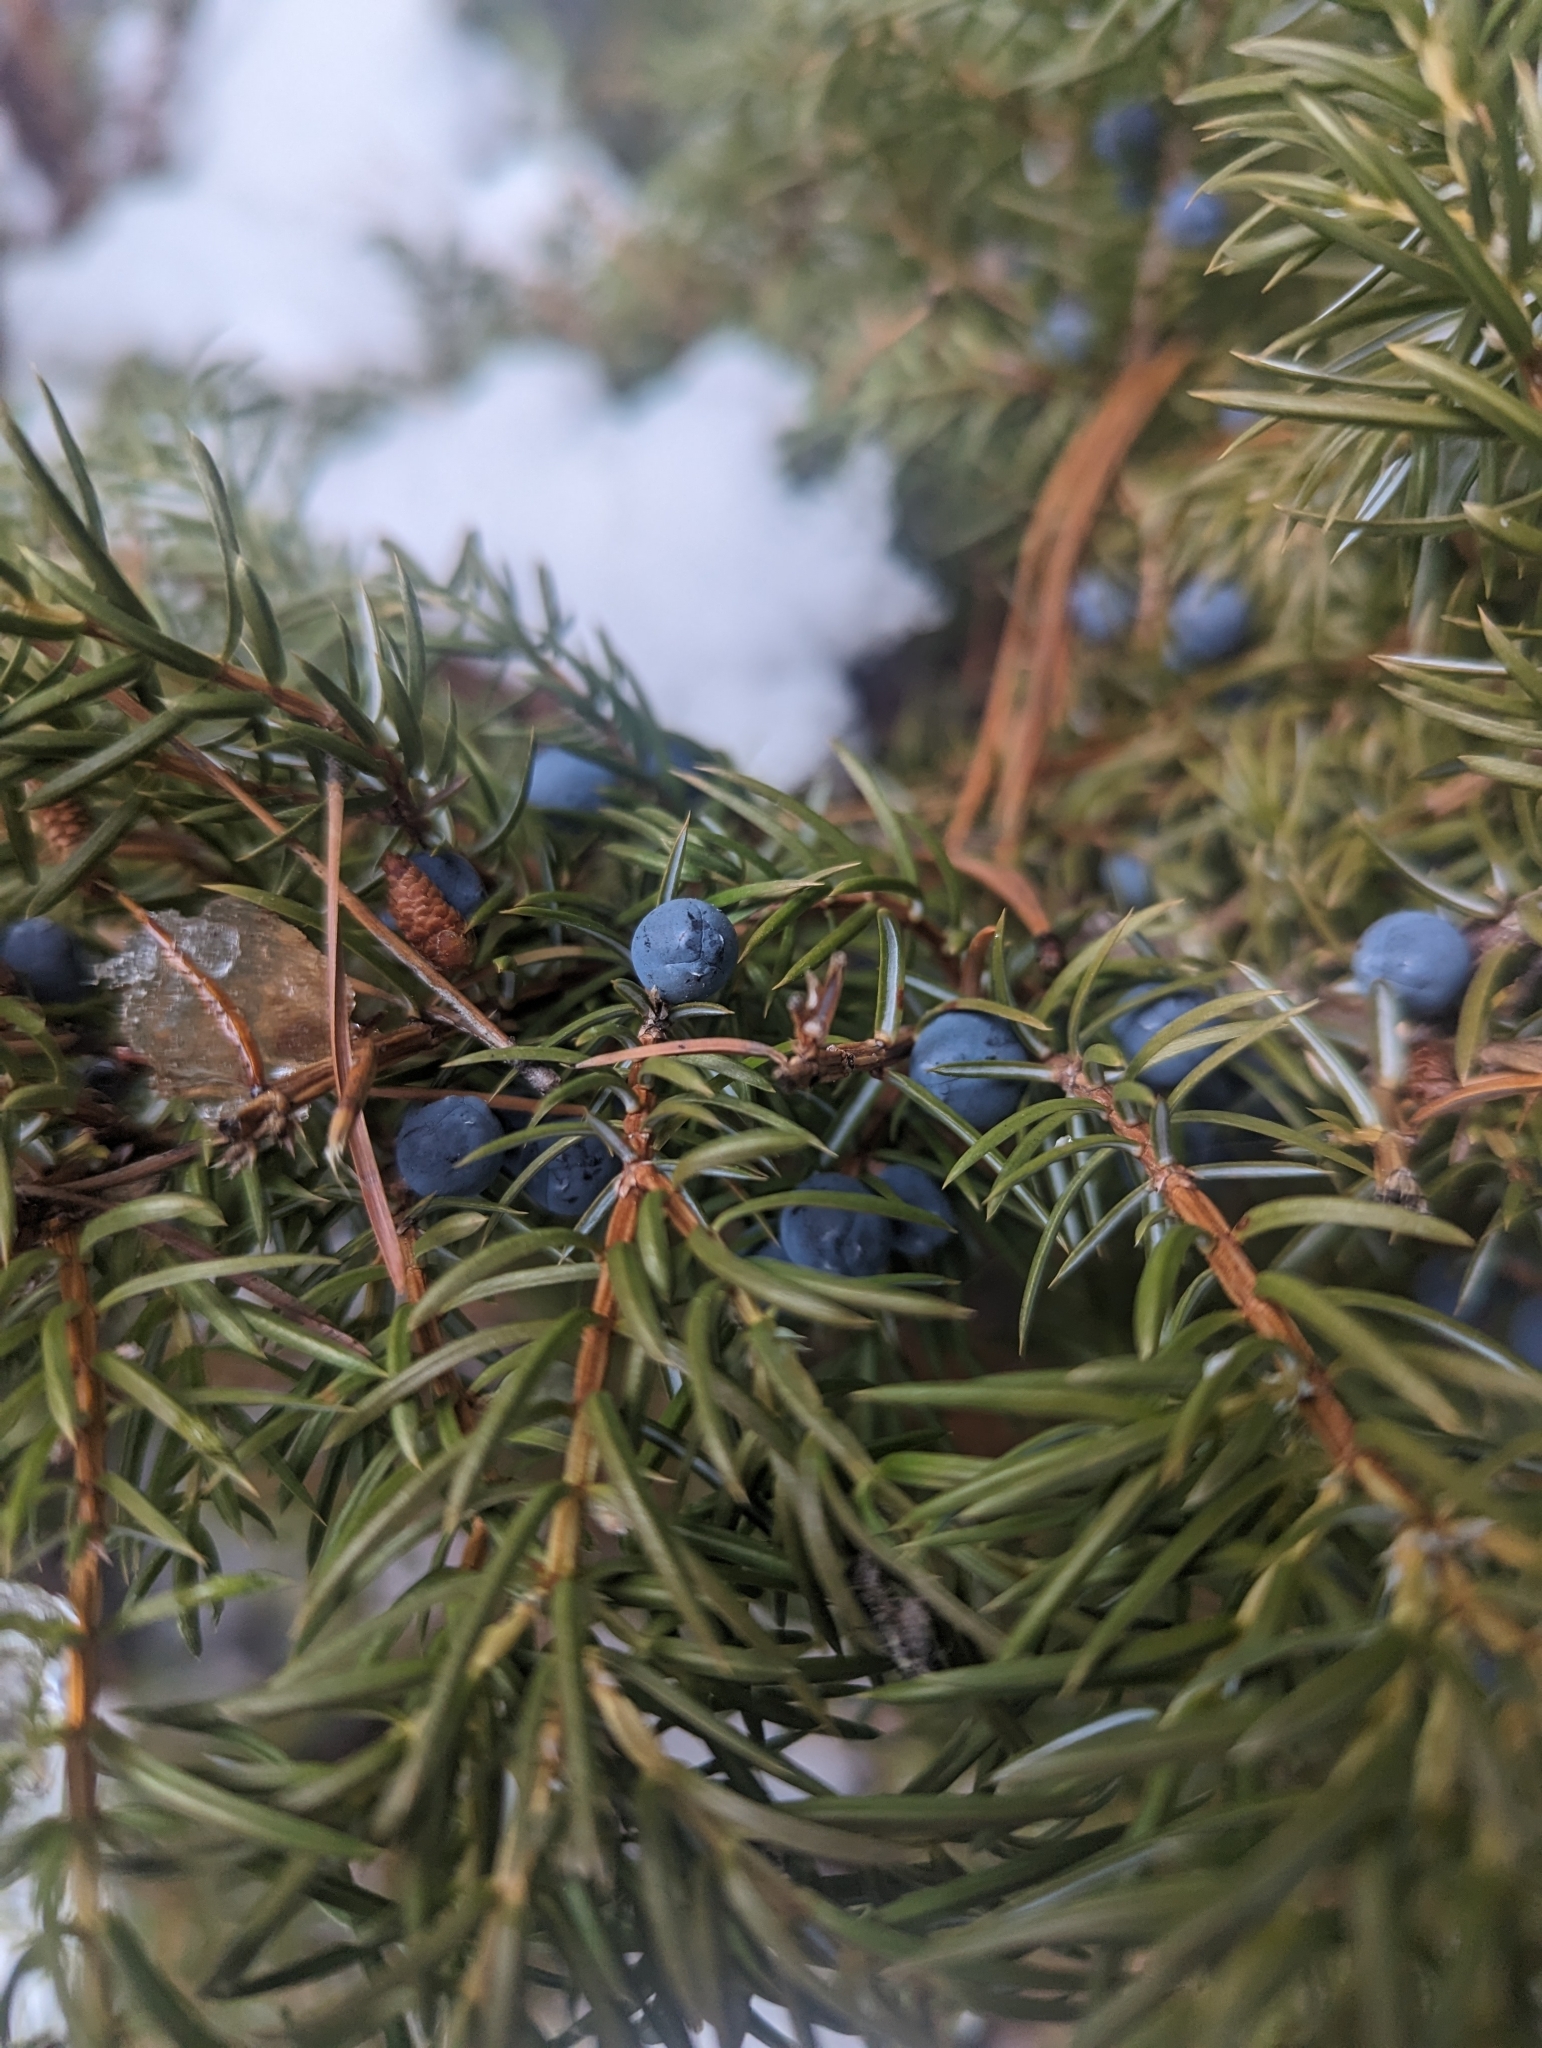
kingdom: Plantae
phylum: Tracheophyta
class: Pinopsida
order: Pinales
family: Cupressaceae
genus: Juniperus
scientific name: Juniperus communis
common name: Common juniper
